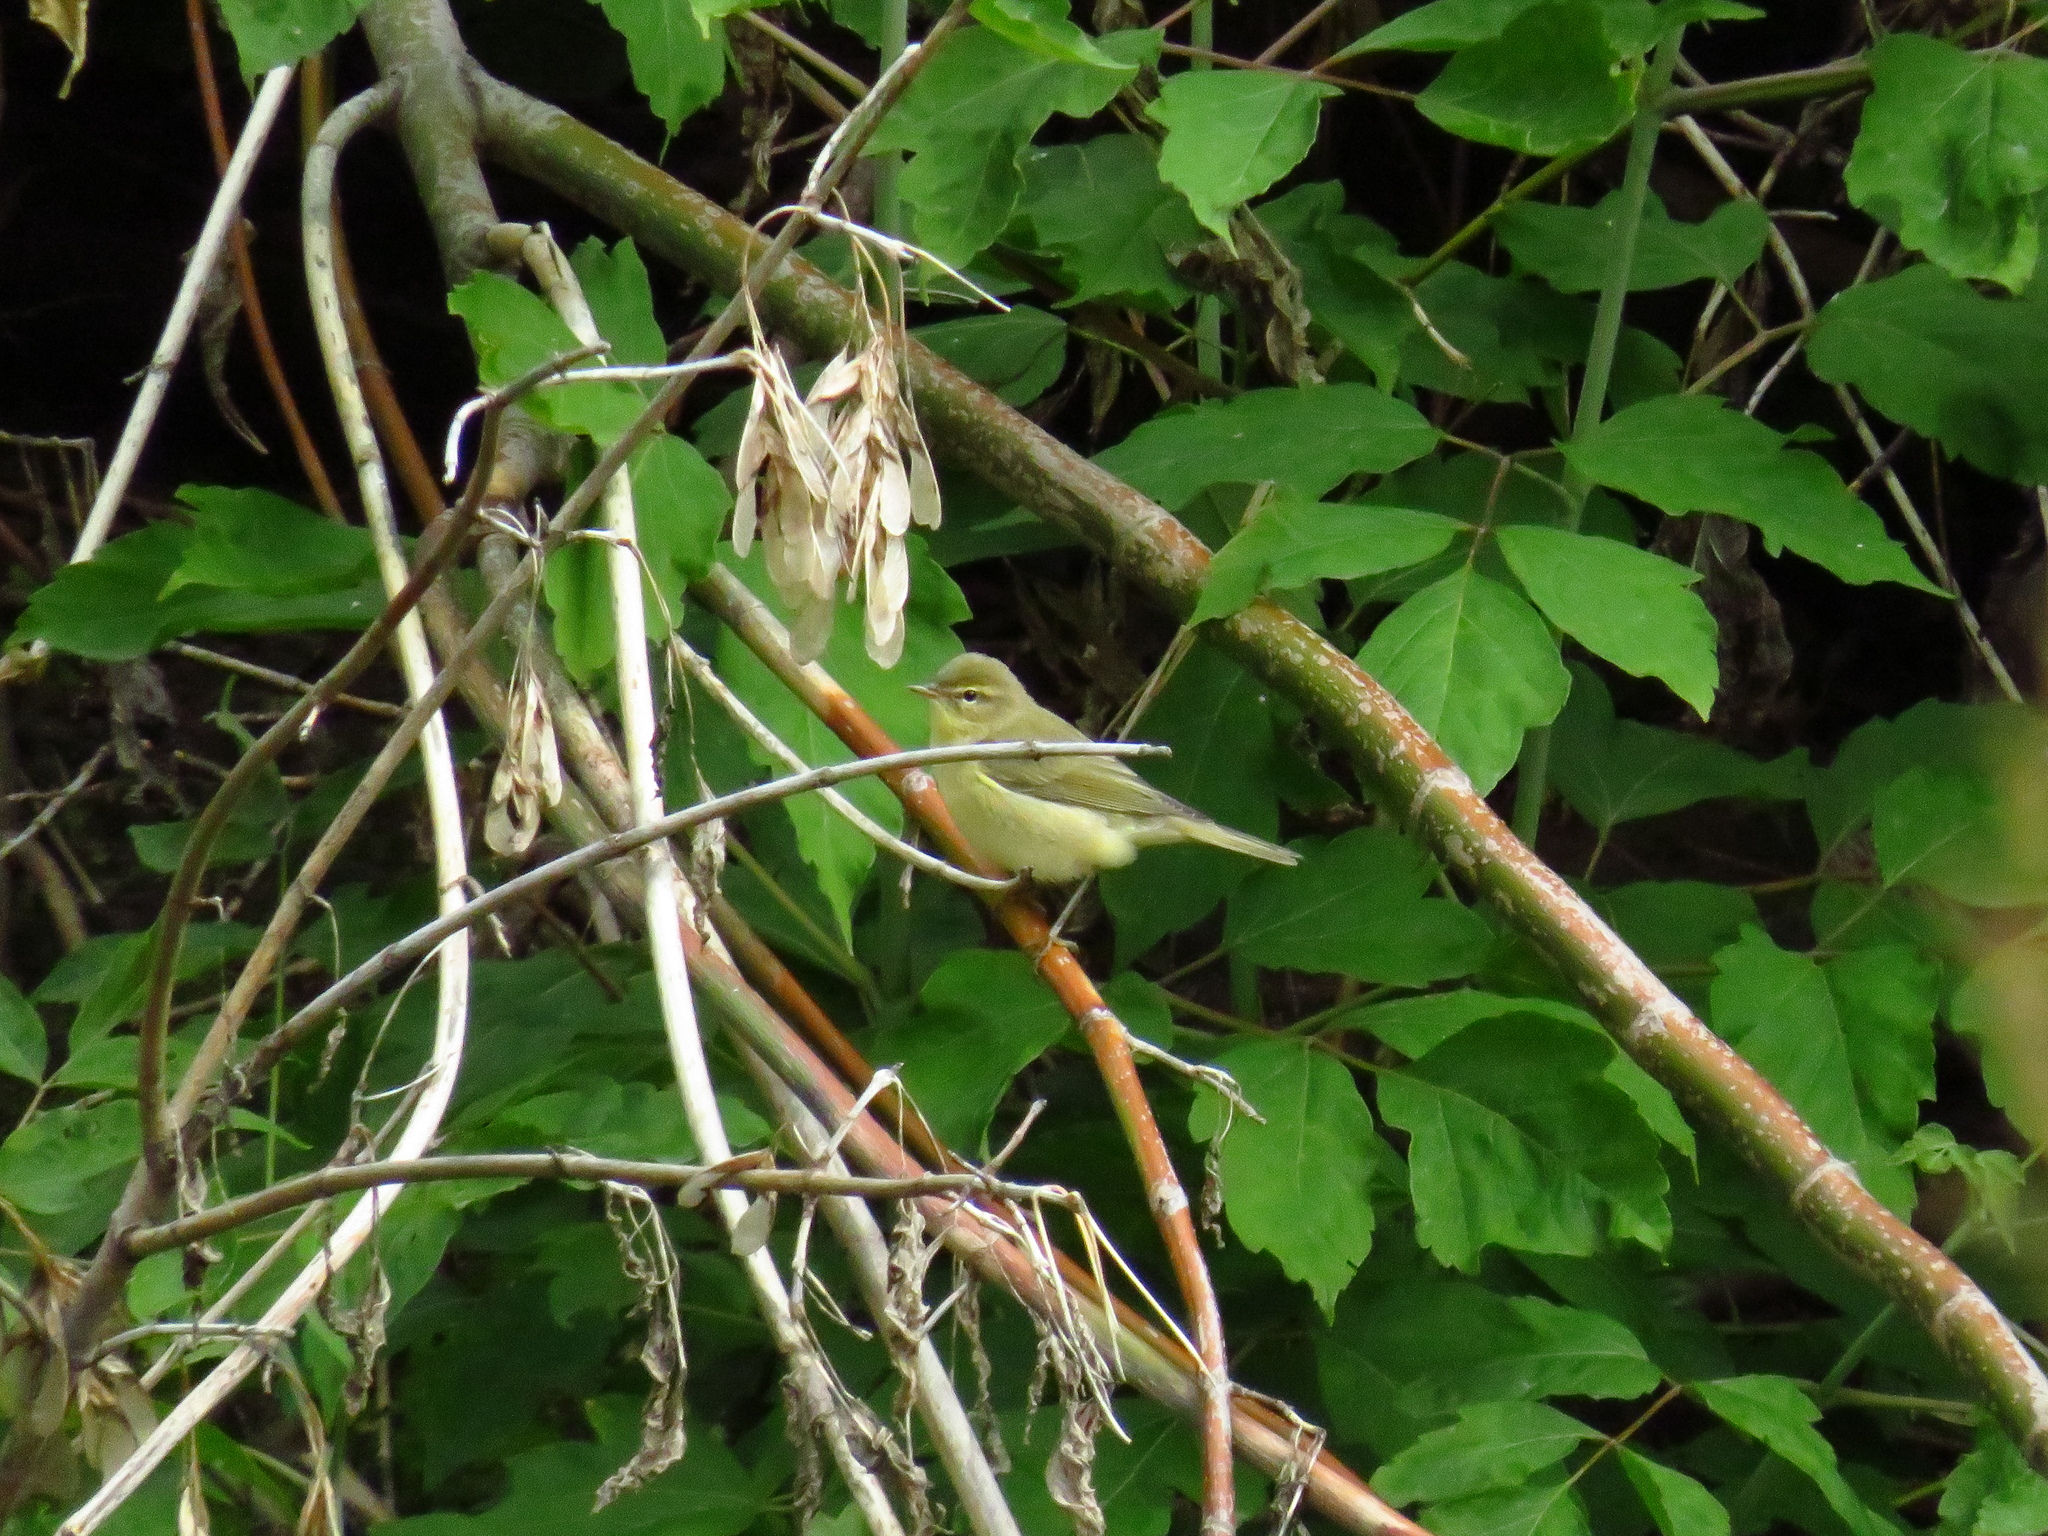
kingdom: Animalia
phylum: Chordata
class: Aves
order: Passeriformes
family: Phylloscopidae
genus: Phylloscopus
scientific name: Phylloscopus collybita
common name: Common chiffchaff
